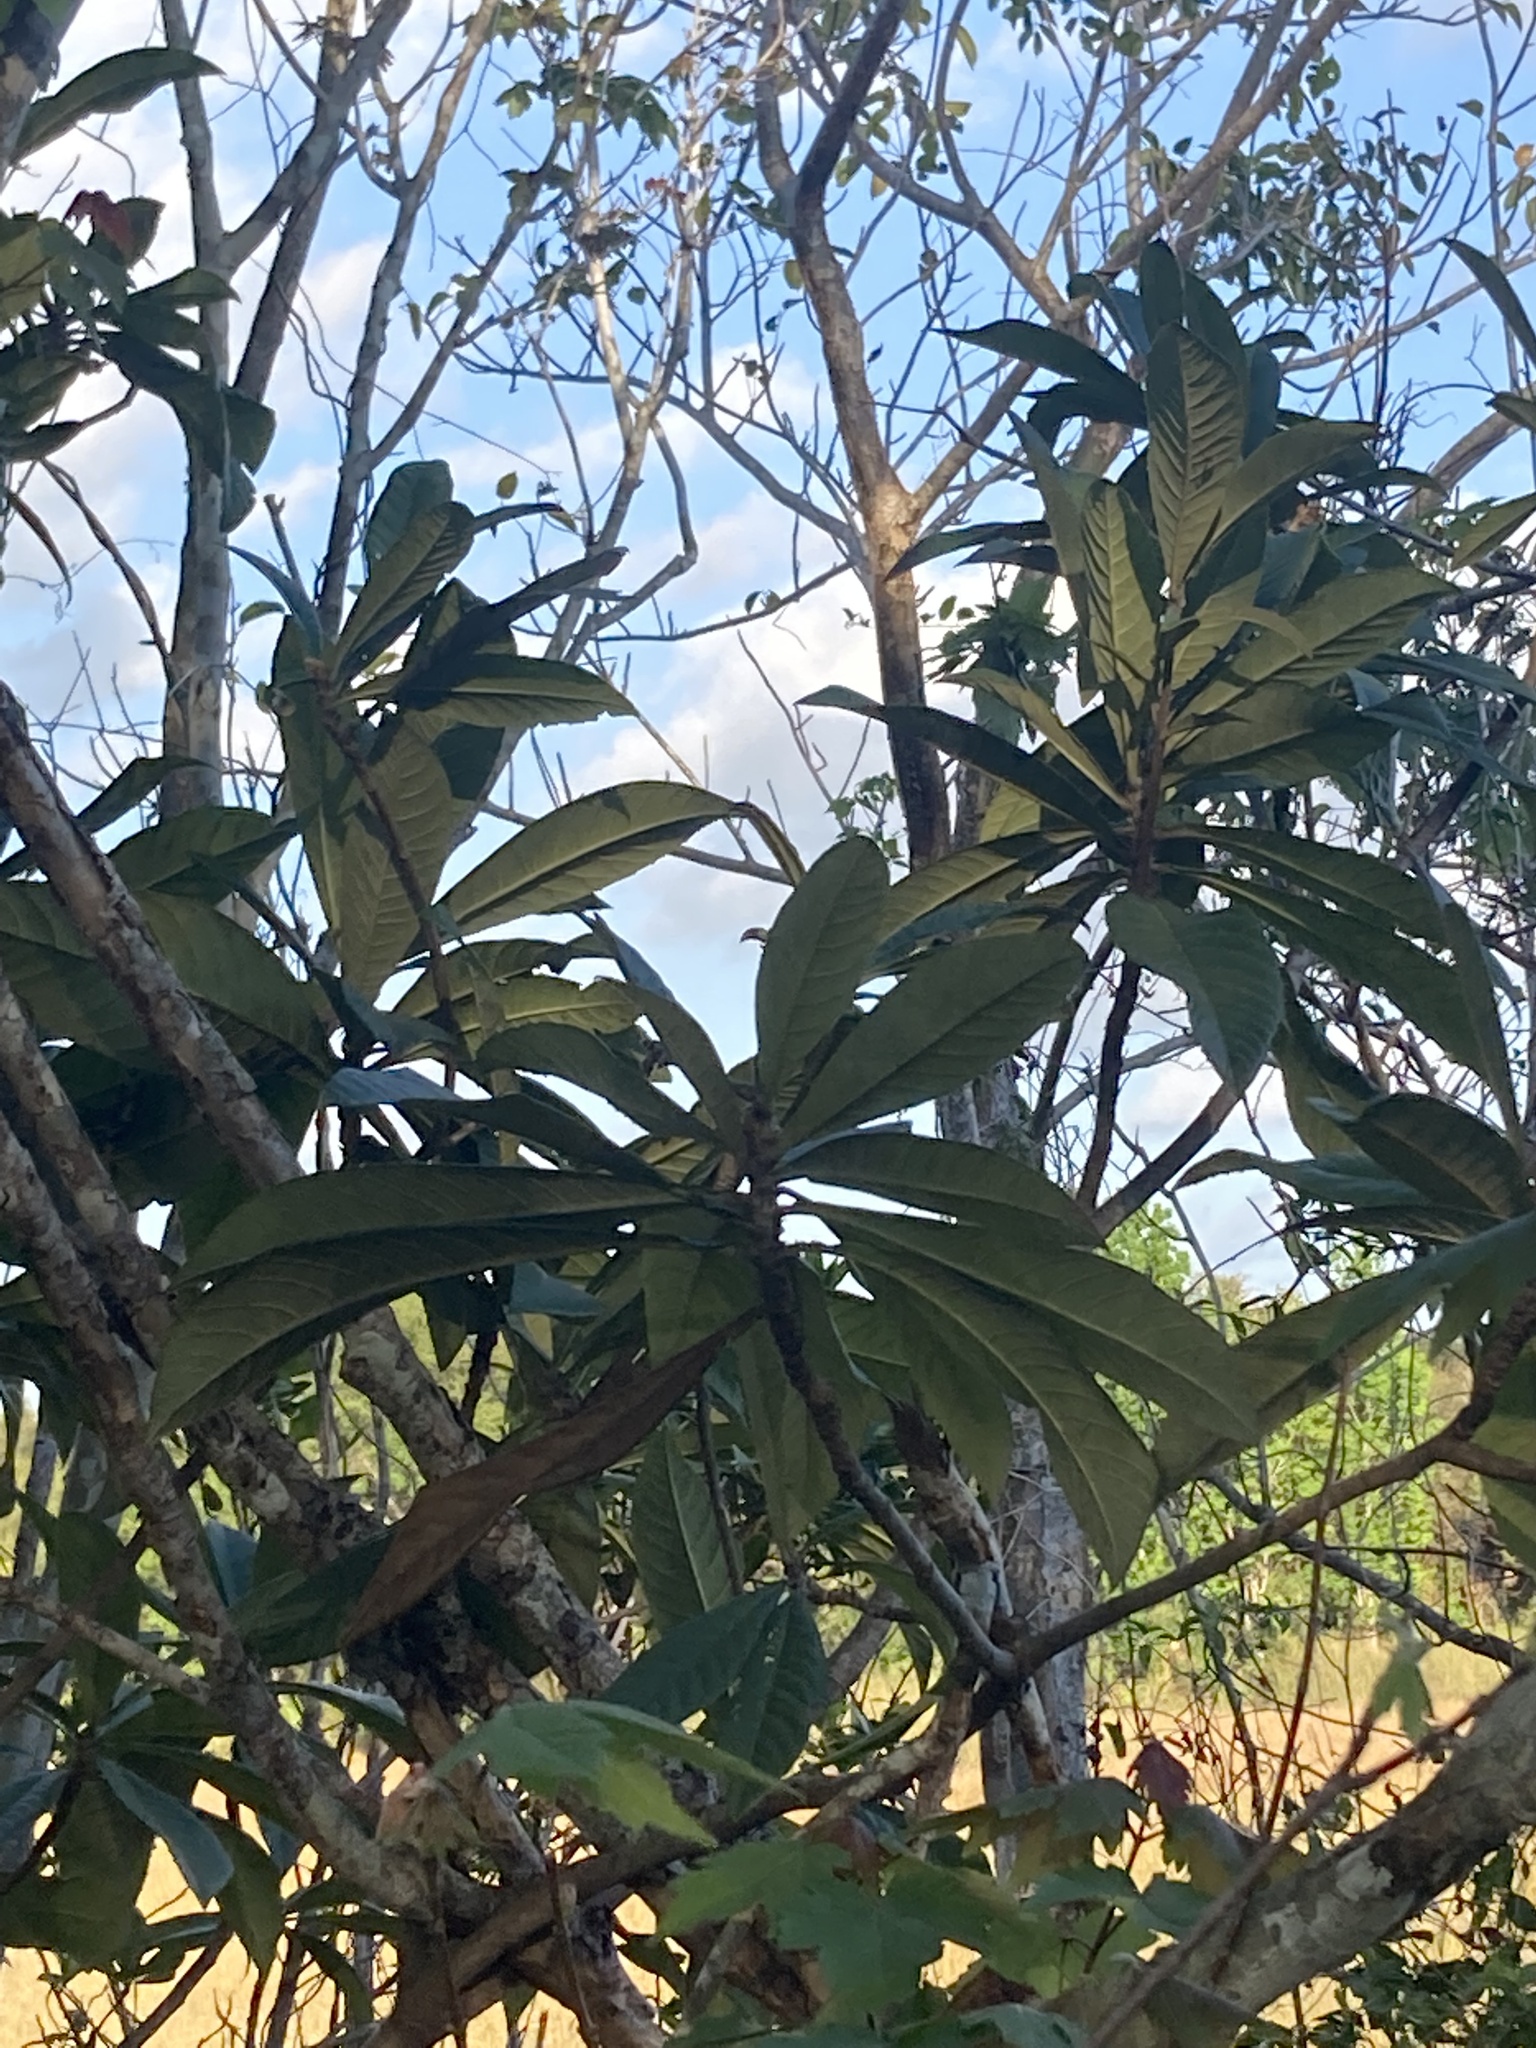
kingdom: Plantae
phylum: Tracheophyta
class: Magnoliopsida
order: Rosales
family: Rosaceae
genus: Rhaphiolepis
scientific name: Rhaphiolepis bibas
